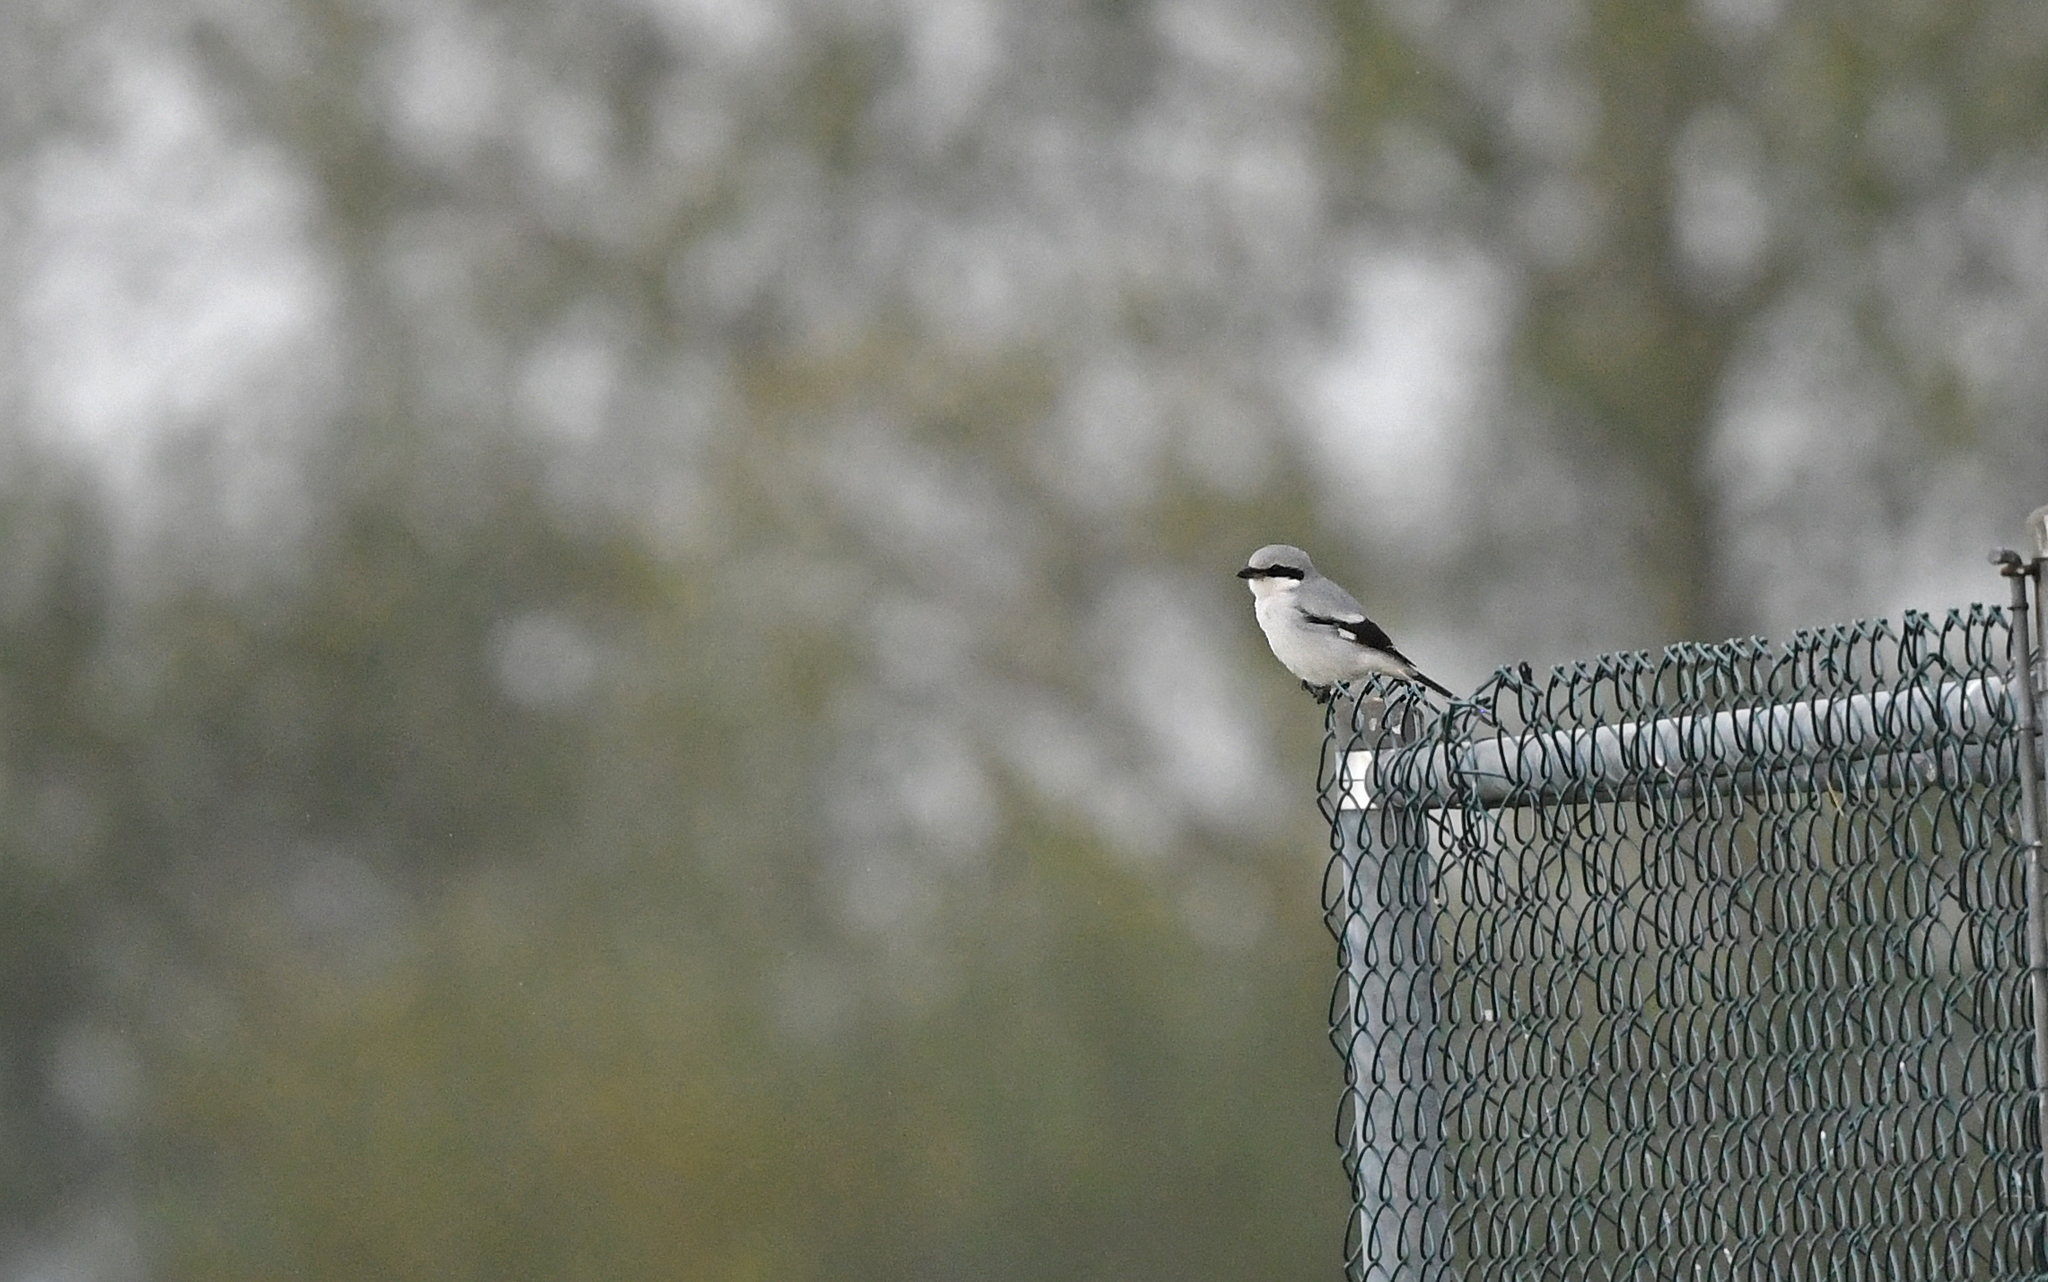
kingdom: Animalia
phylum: Chordata
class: Aves
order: Passeriformes
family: Laniidae
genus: Lanius
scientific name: Lanius excubitor
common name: Great grey shrike
